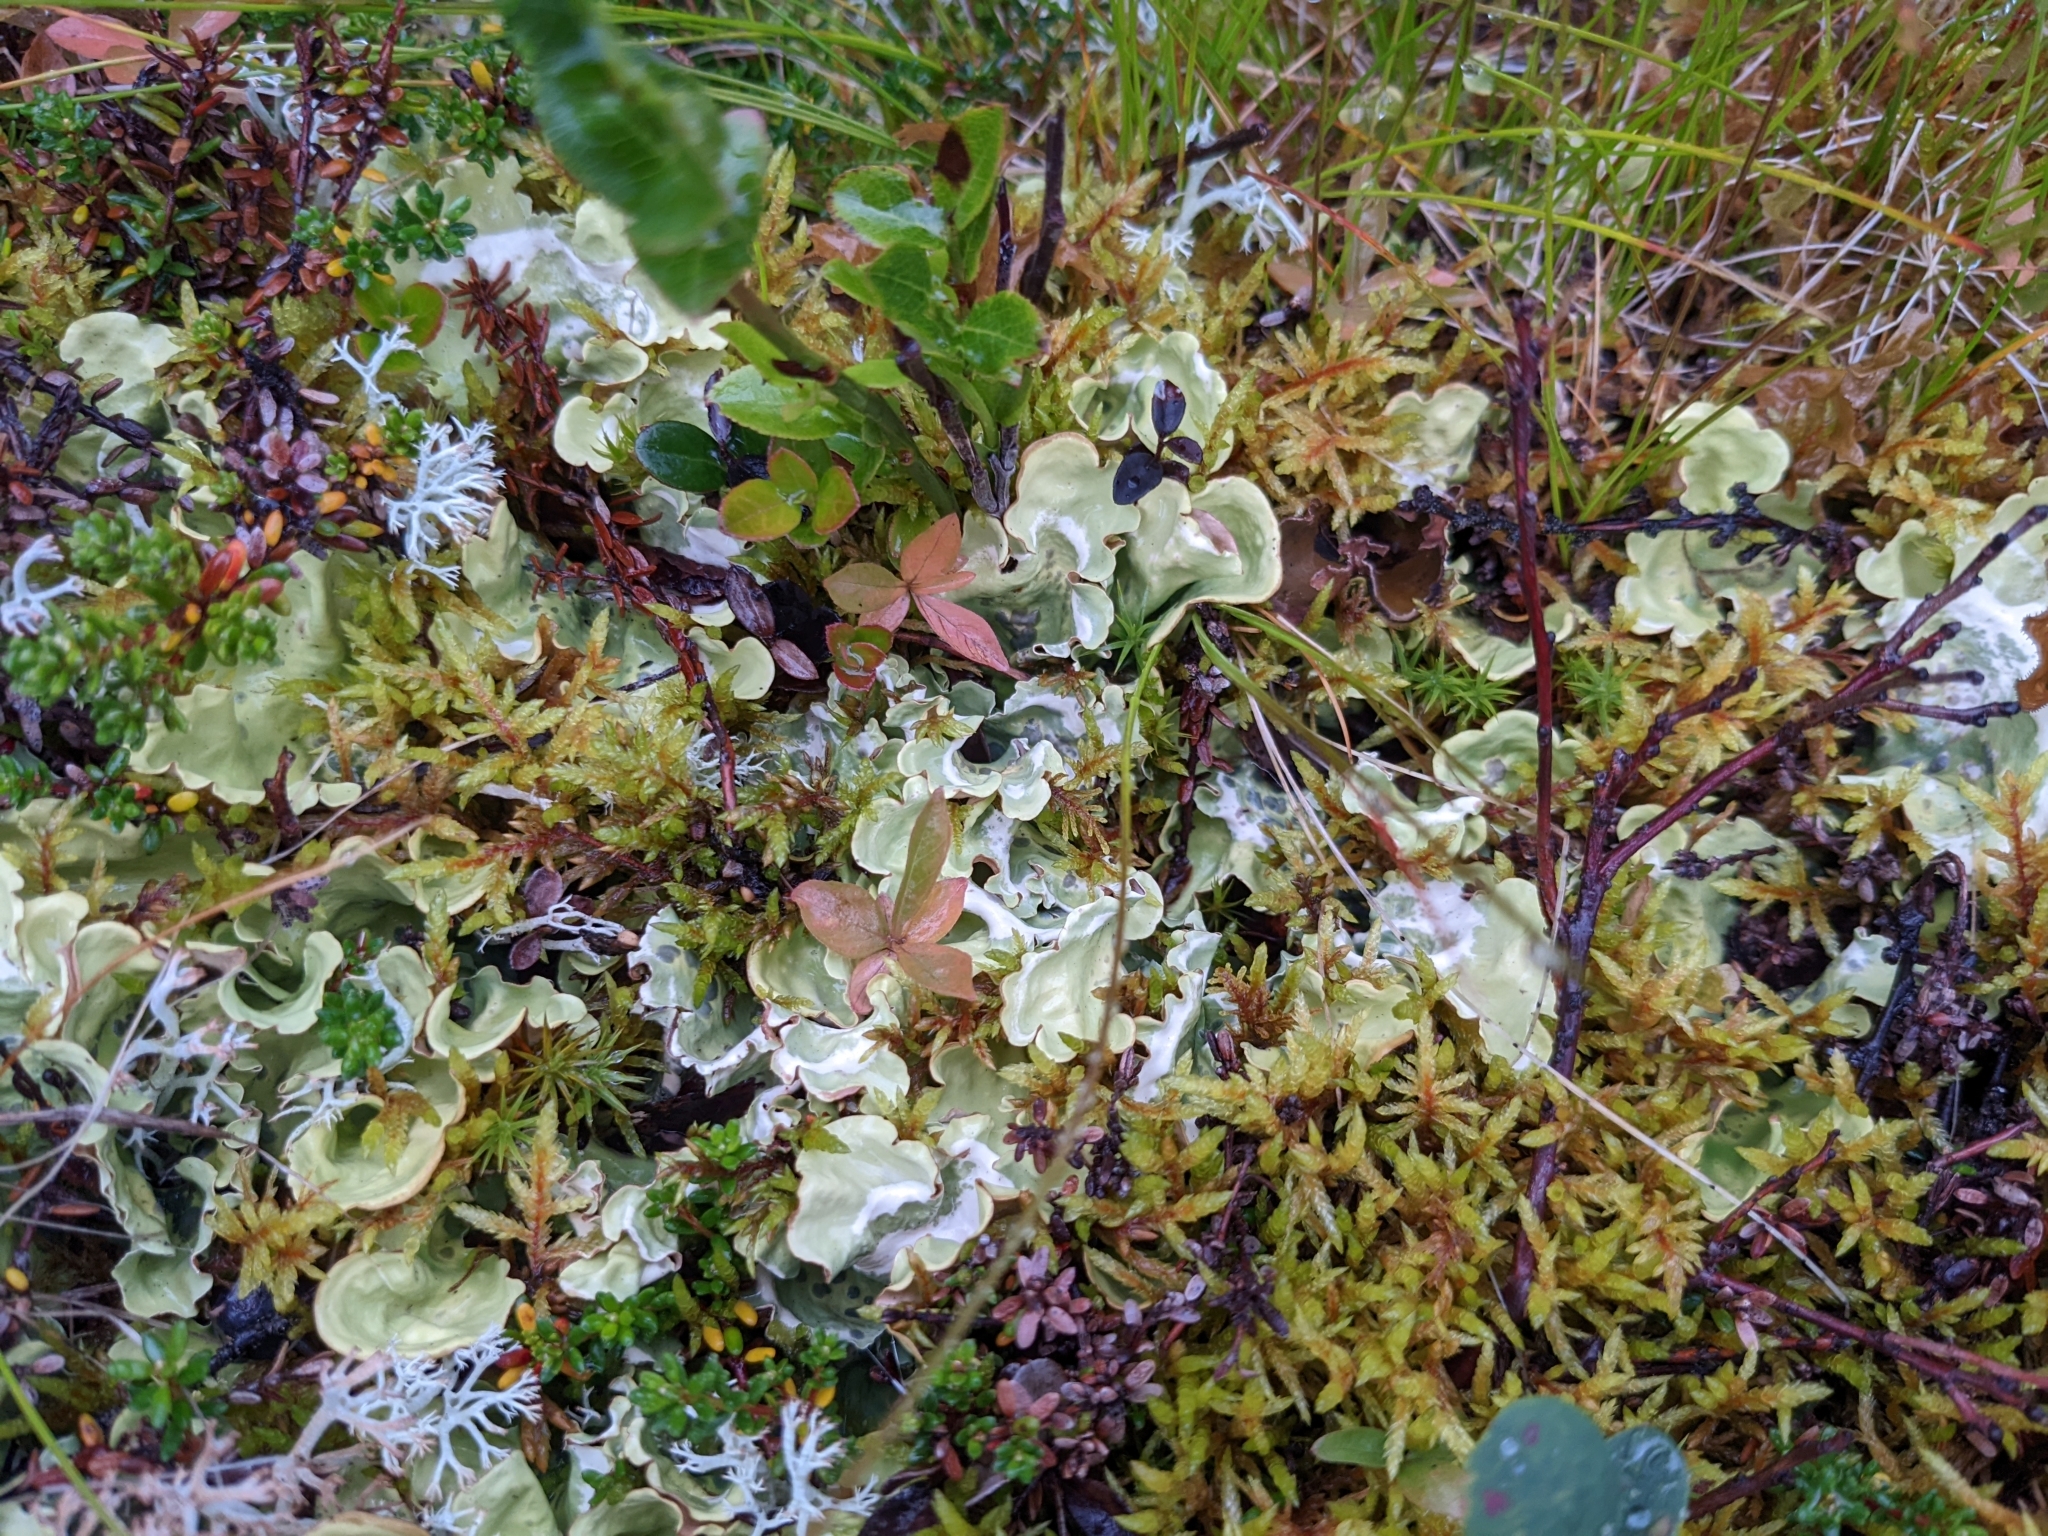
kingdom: Fungi
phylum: Ascomycota
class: Lecanoromycetes
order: Peltigerales
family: Nephromataceae
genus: Nephroma
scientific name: Nephroma arcticum
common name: Arctic kidney-lichen
